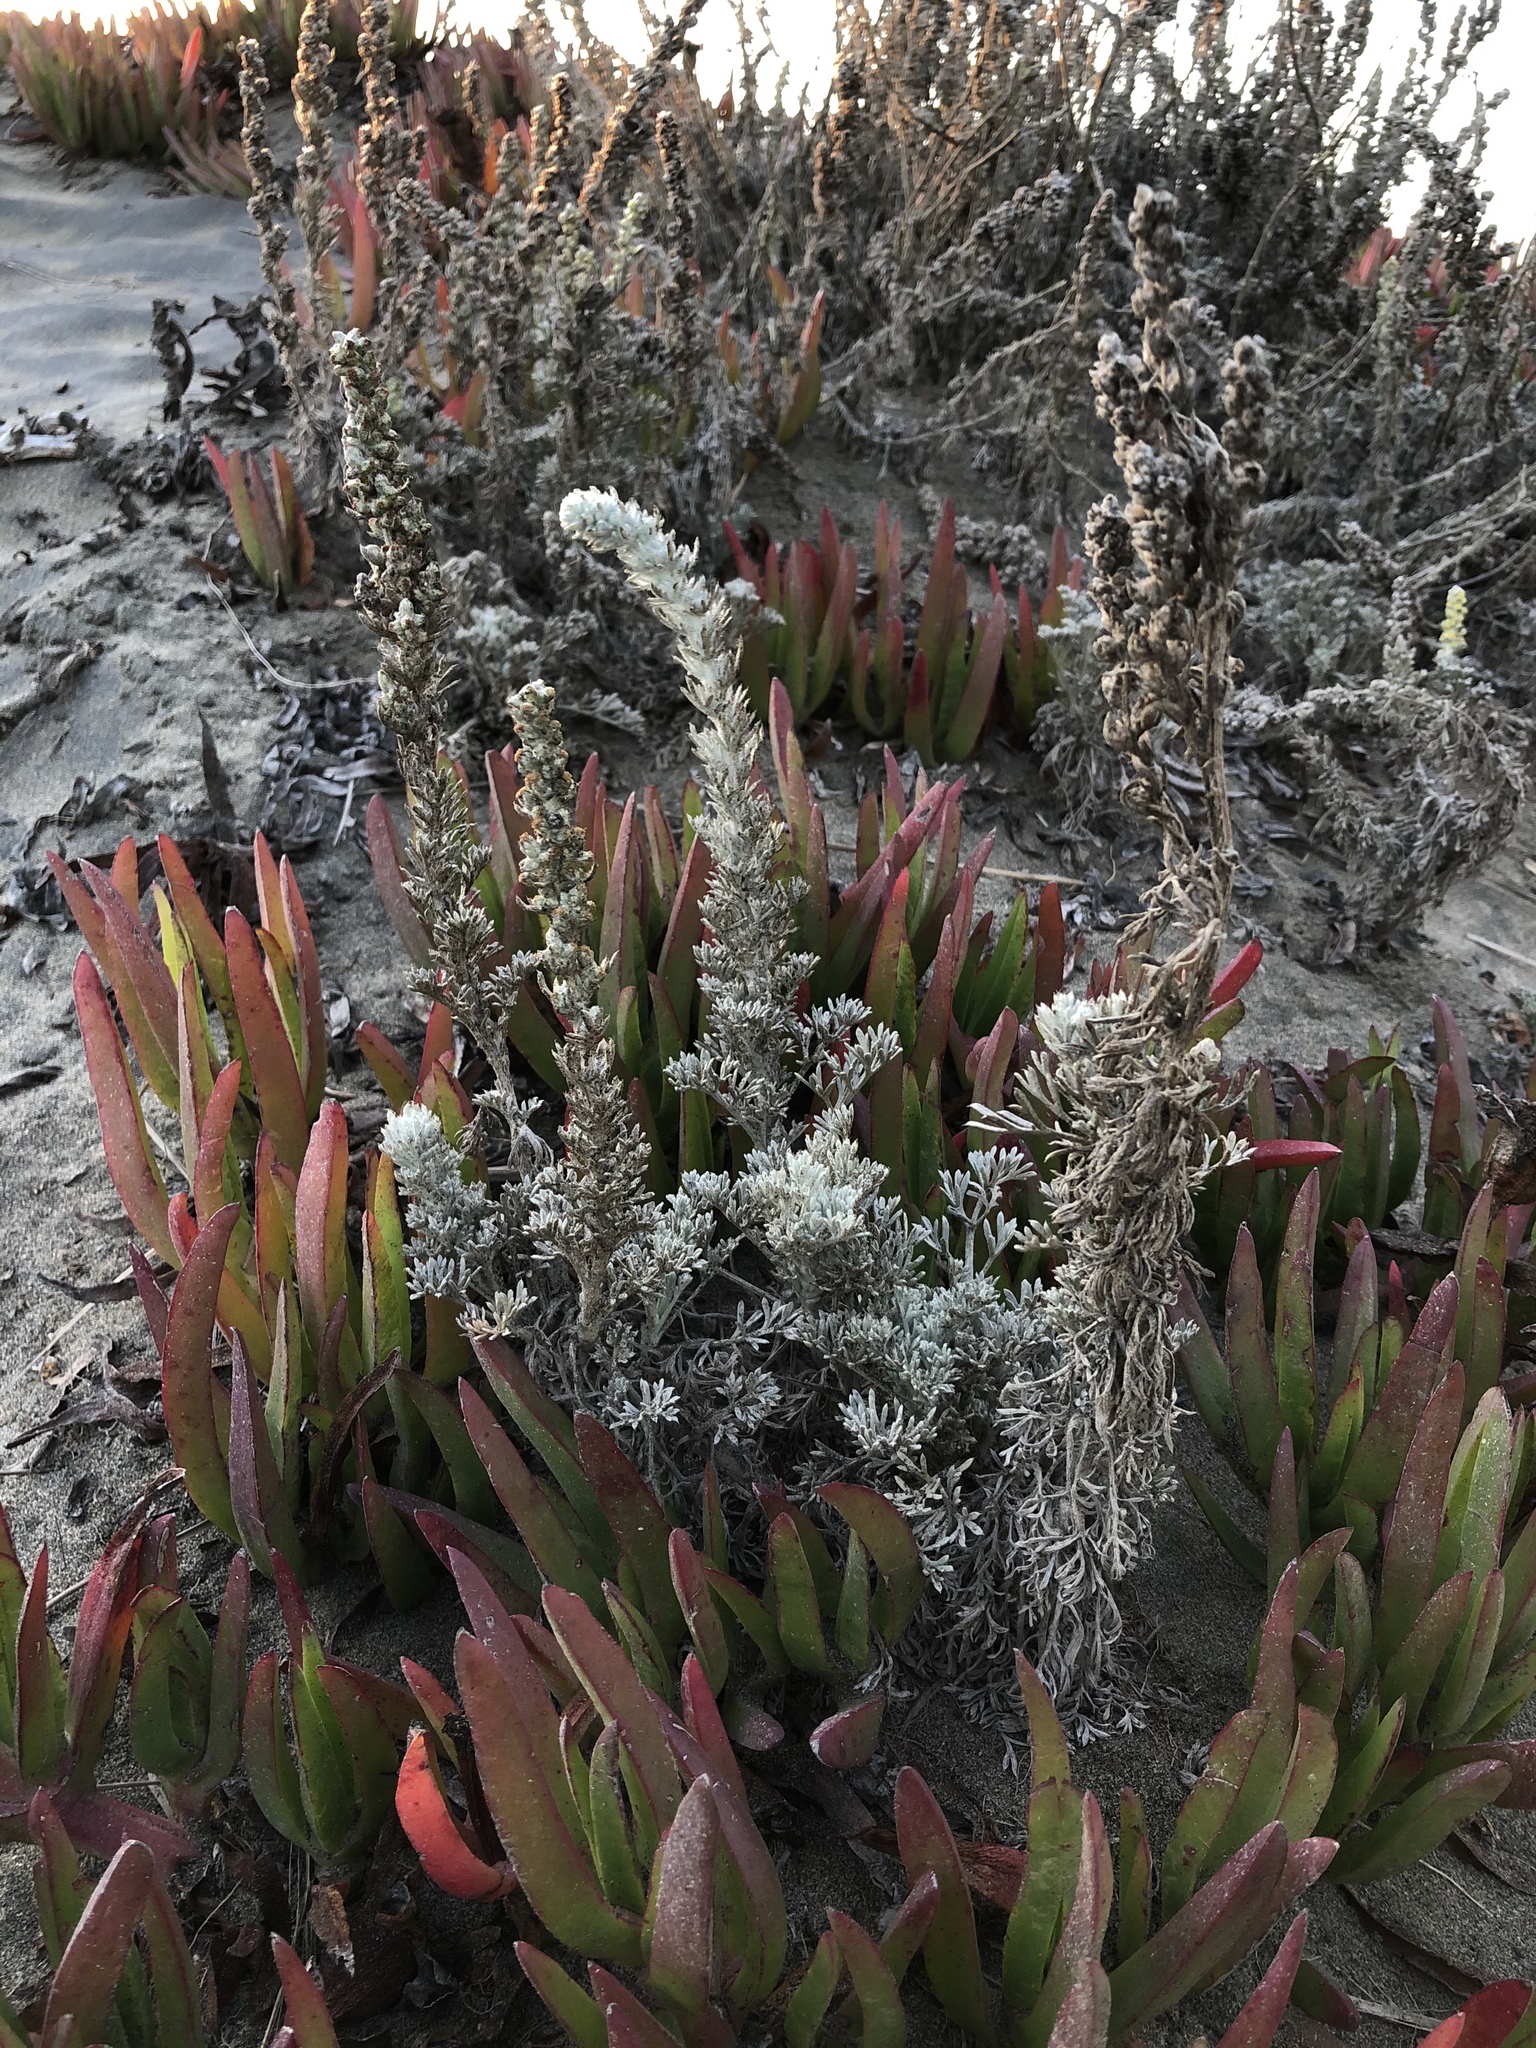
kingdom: Plantae
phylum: Tracheophyta
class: Magnoliopsida
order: Asterales
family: Asteraceae
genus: Artemisia
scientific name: Artemisia pycnocephala
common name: Coastal sagewort
